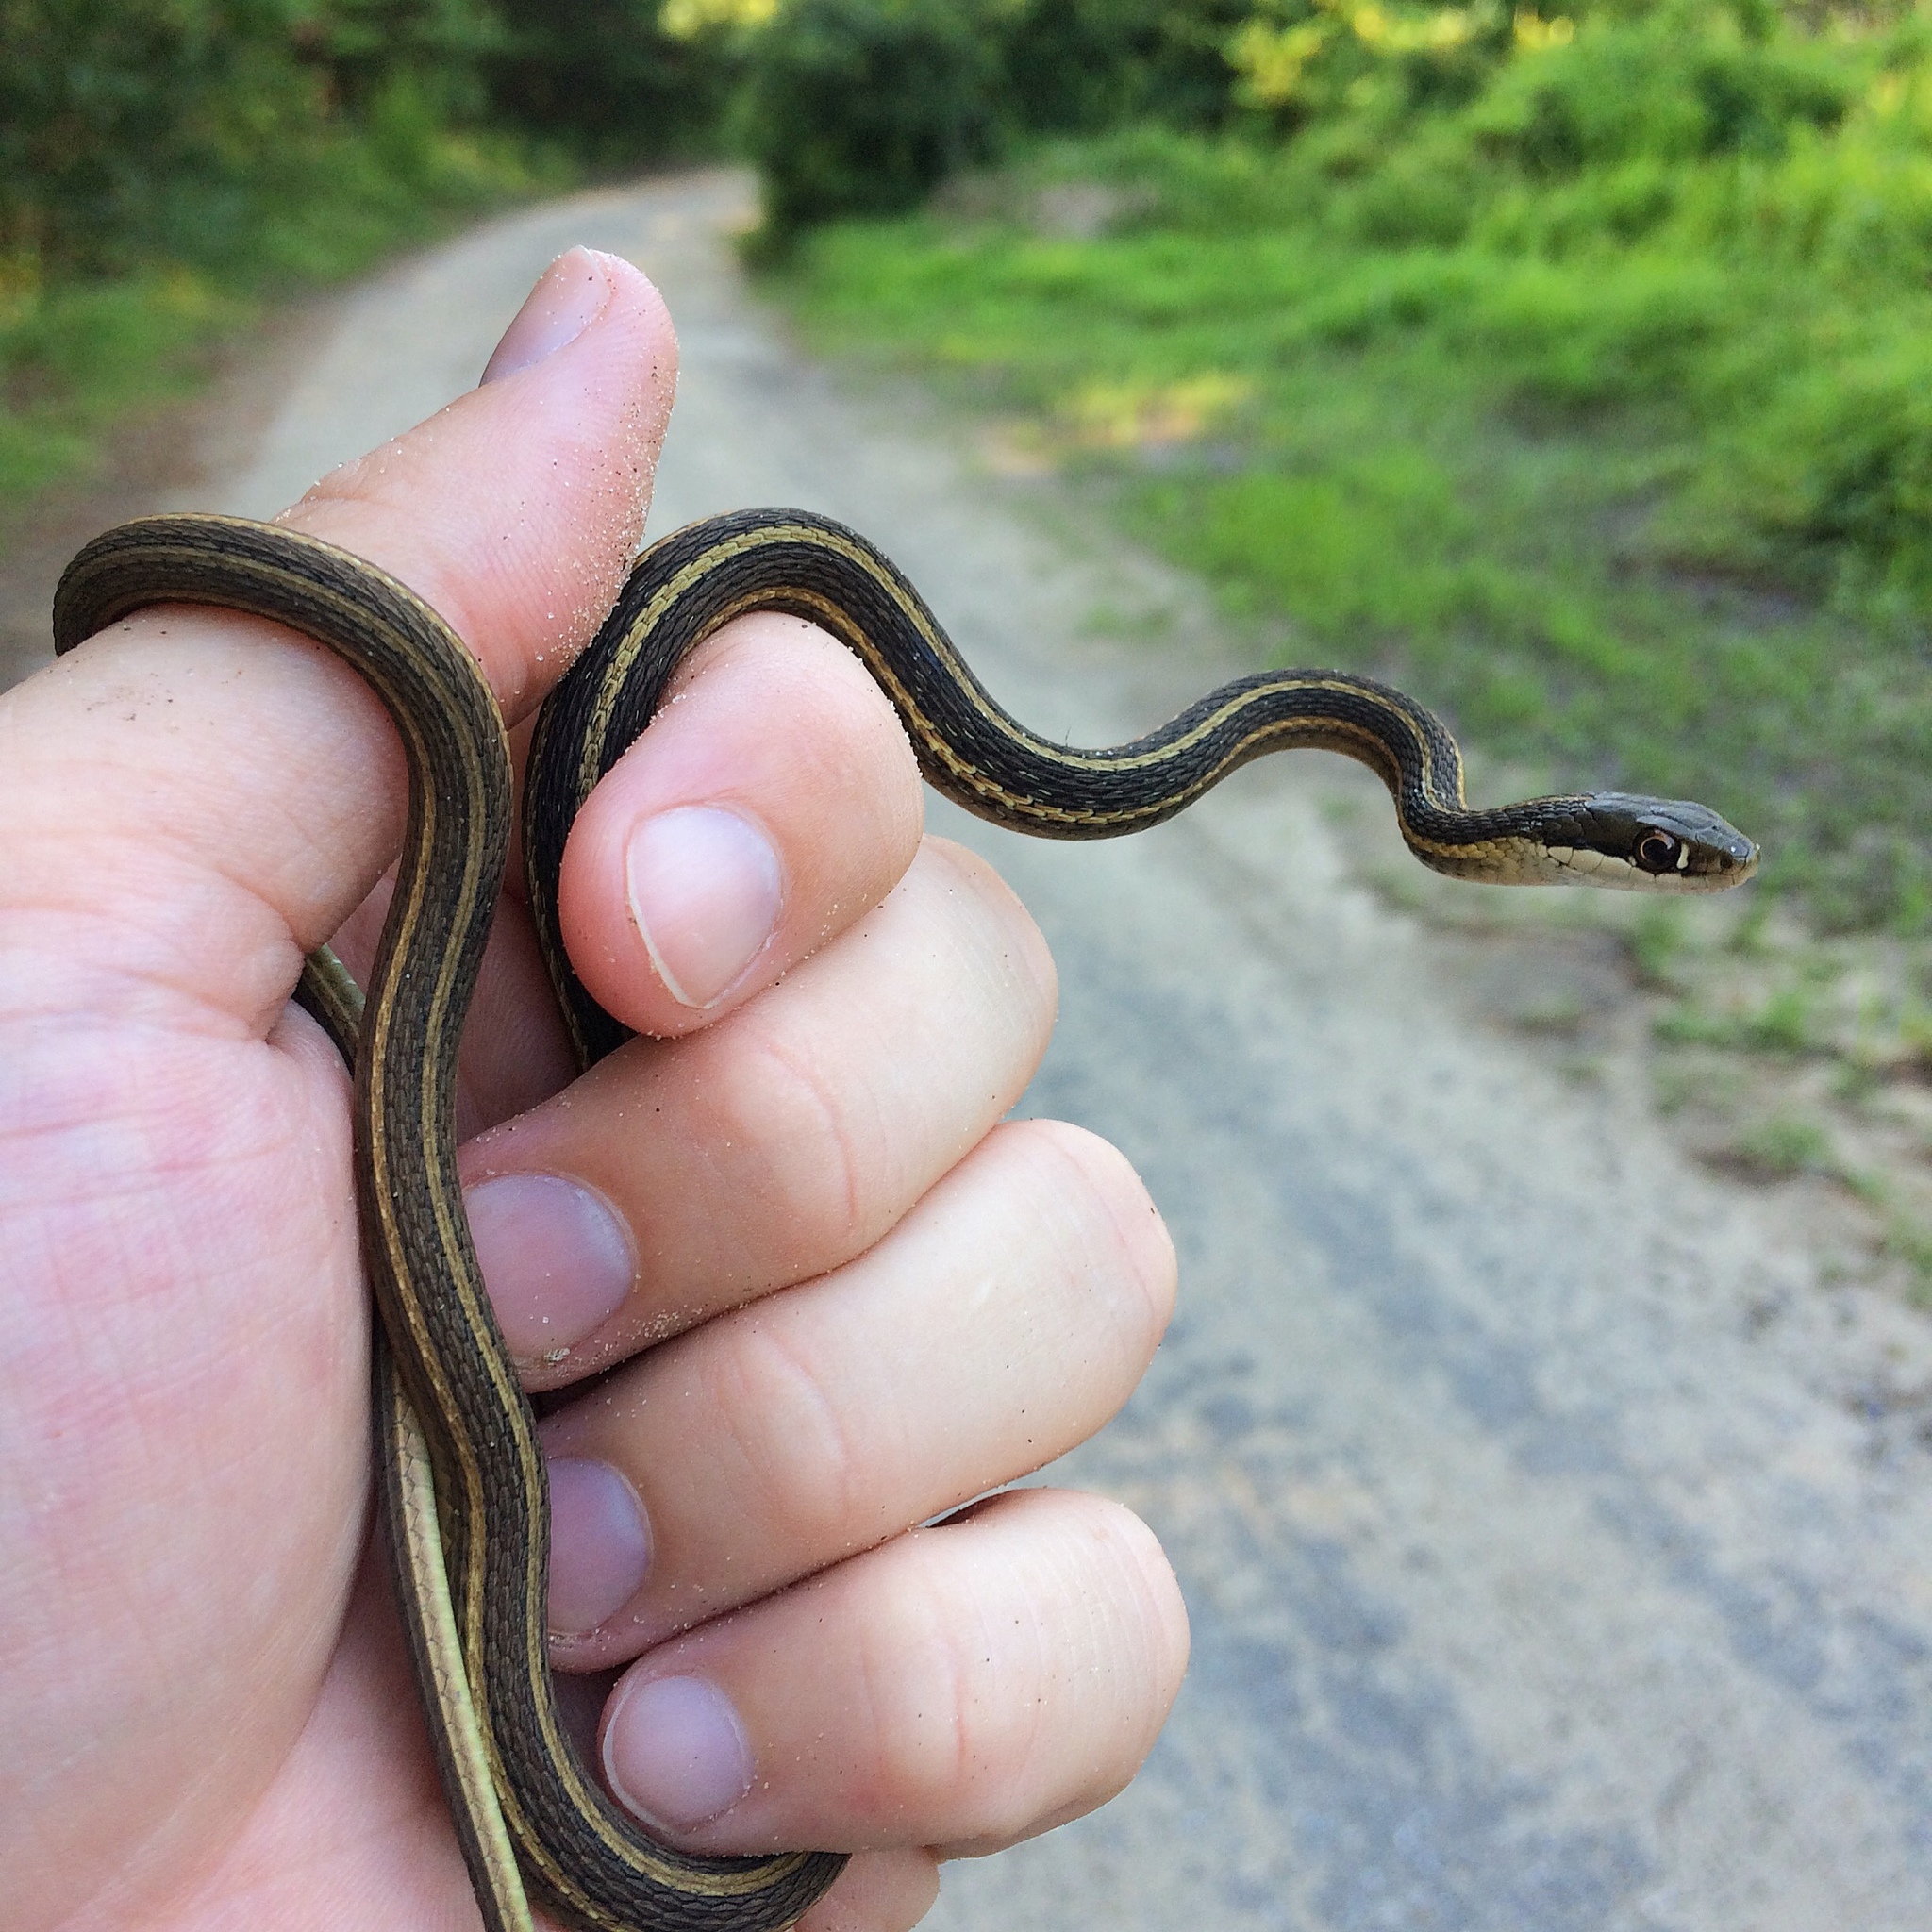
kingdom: Animalia
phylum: Chordata
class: Squamata
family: Colubridae
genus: Thamnophis
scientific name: Thamnophis saurita
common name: Eastern ribbonsnake
